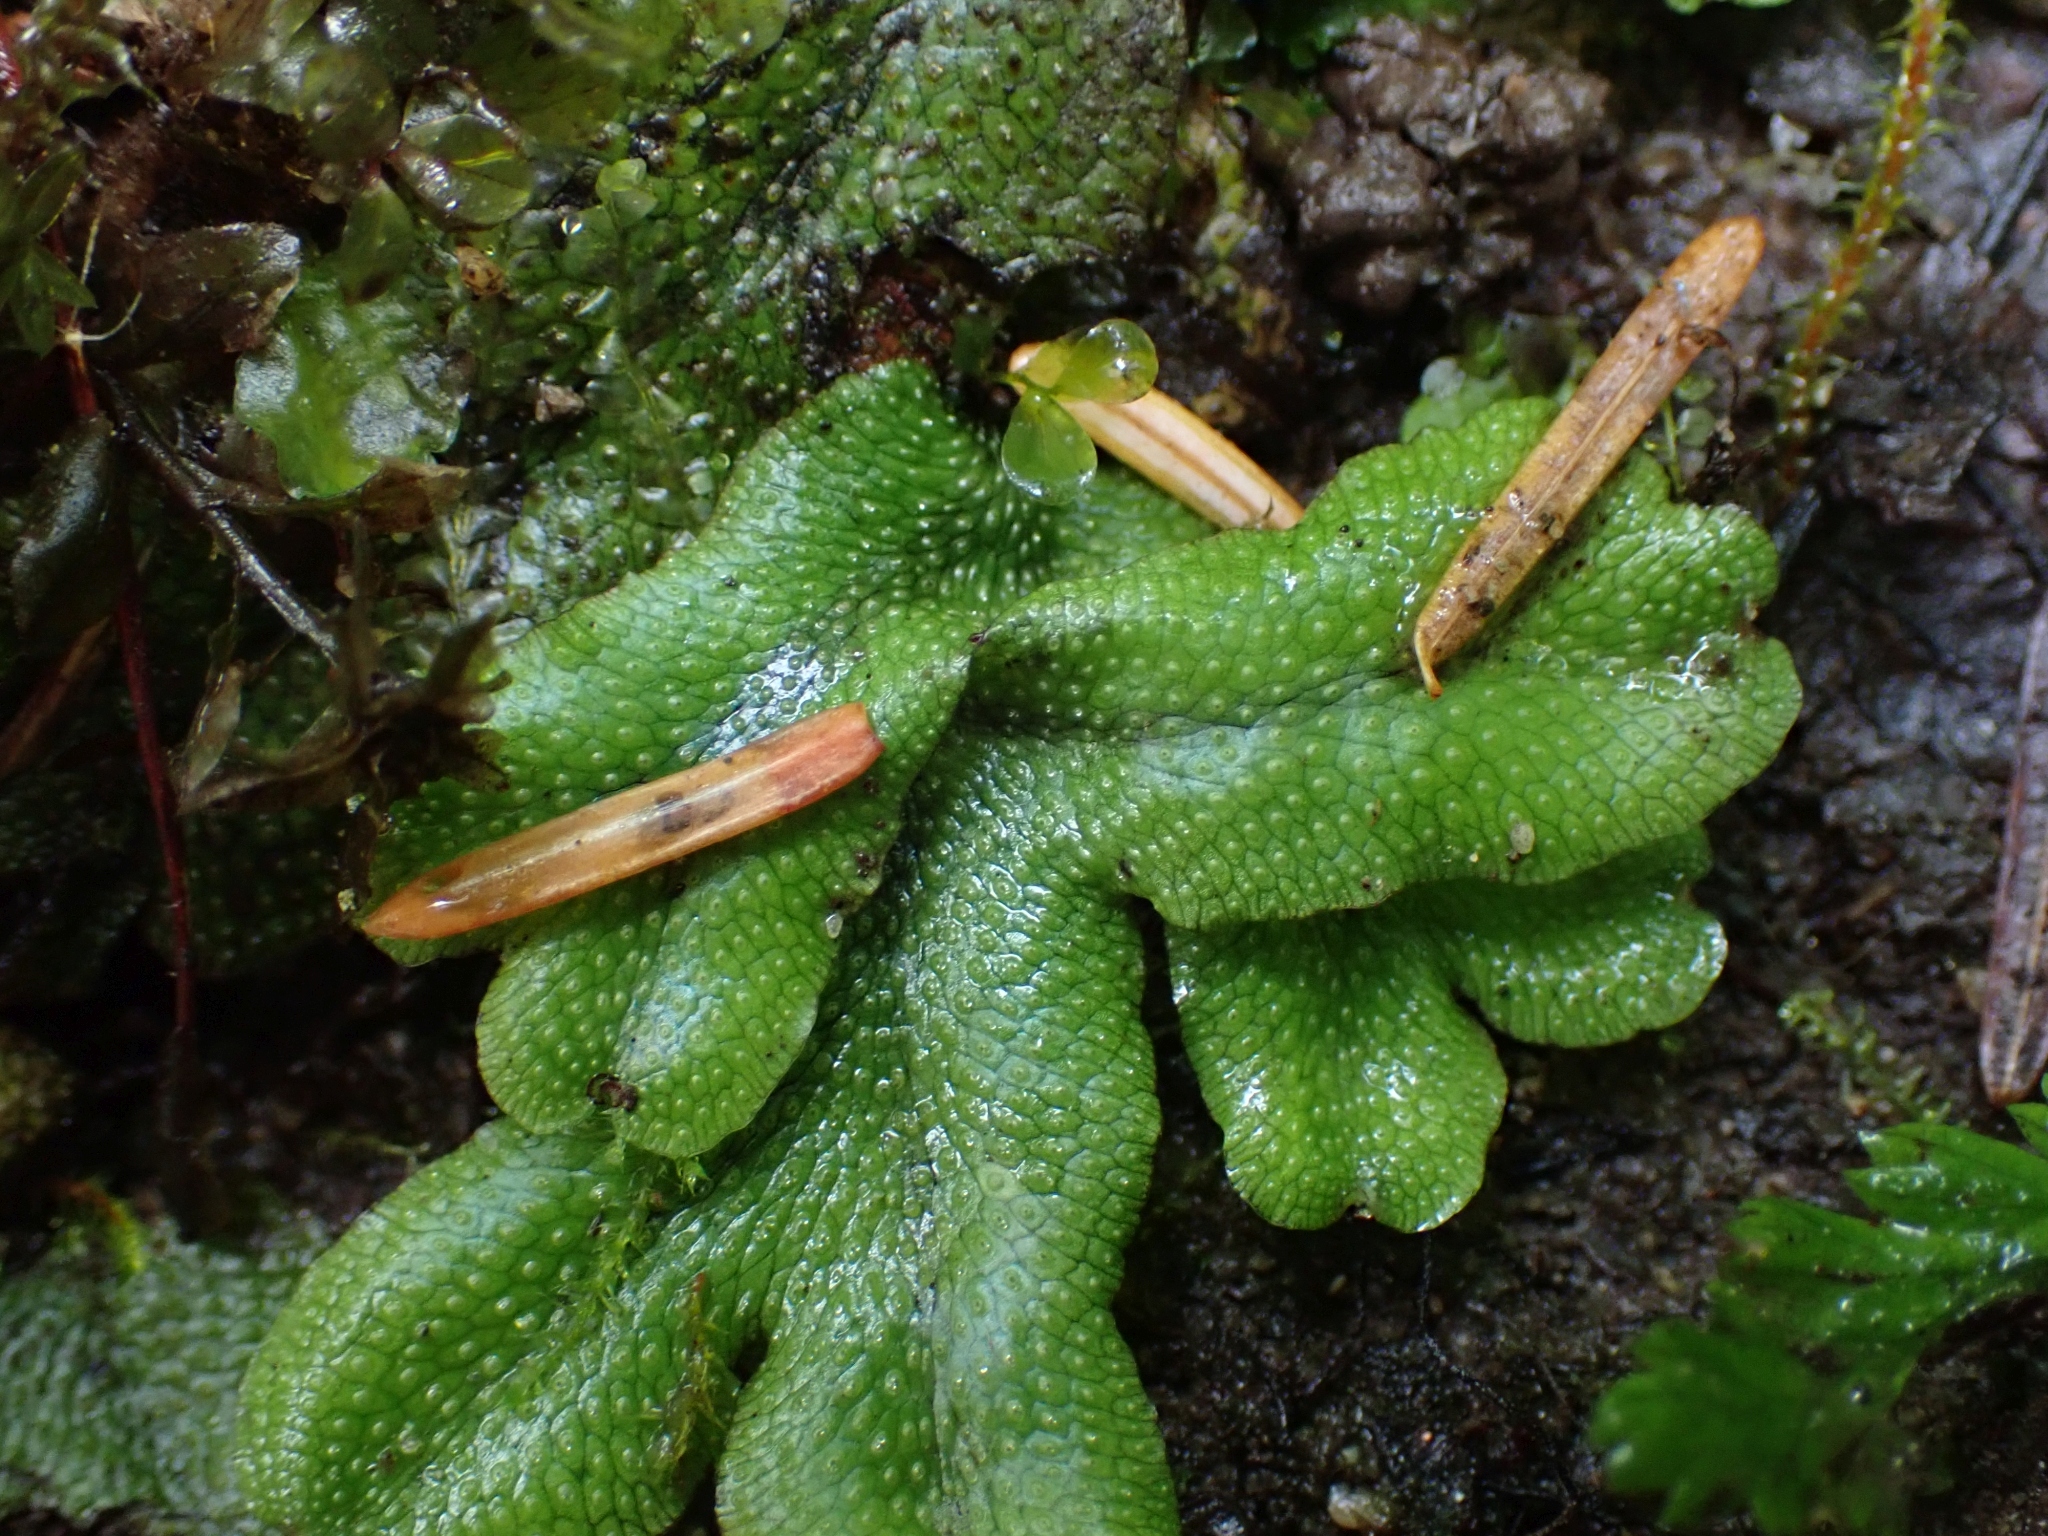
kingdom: Plantae
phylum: Marchantiophyta
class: Marchantiopsida
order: Marchantiales
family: Conocephalaceae
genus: Conocephalum
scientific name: Conocephalum salebrosum
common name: Cat-tongue liverwort
